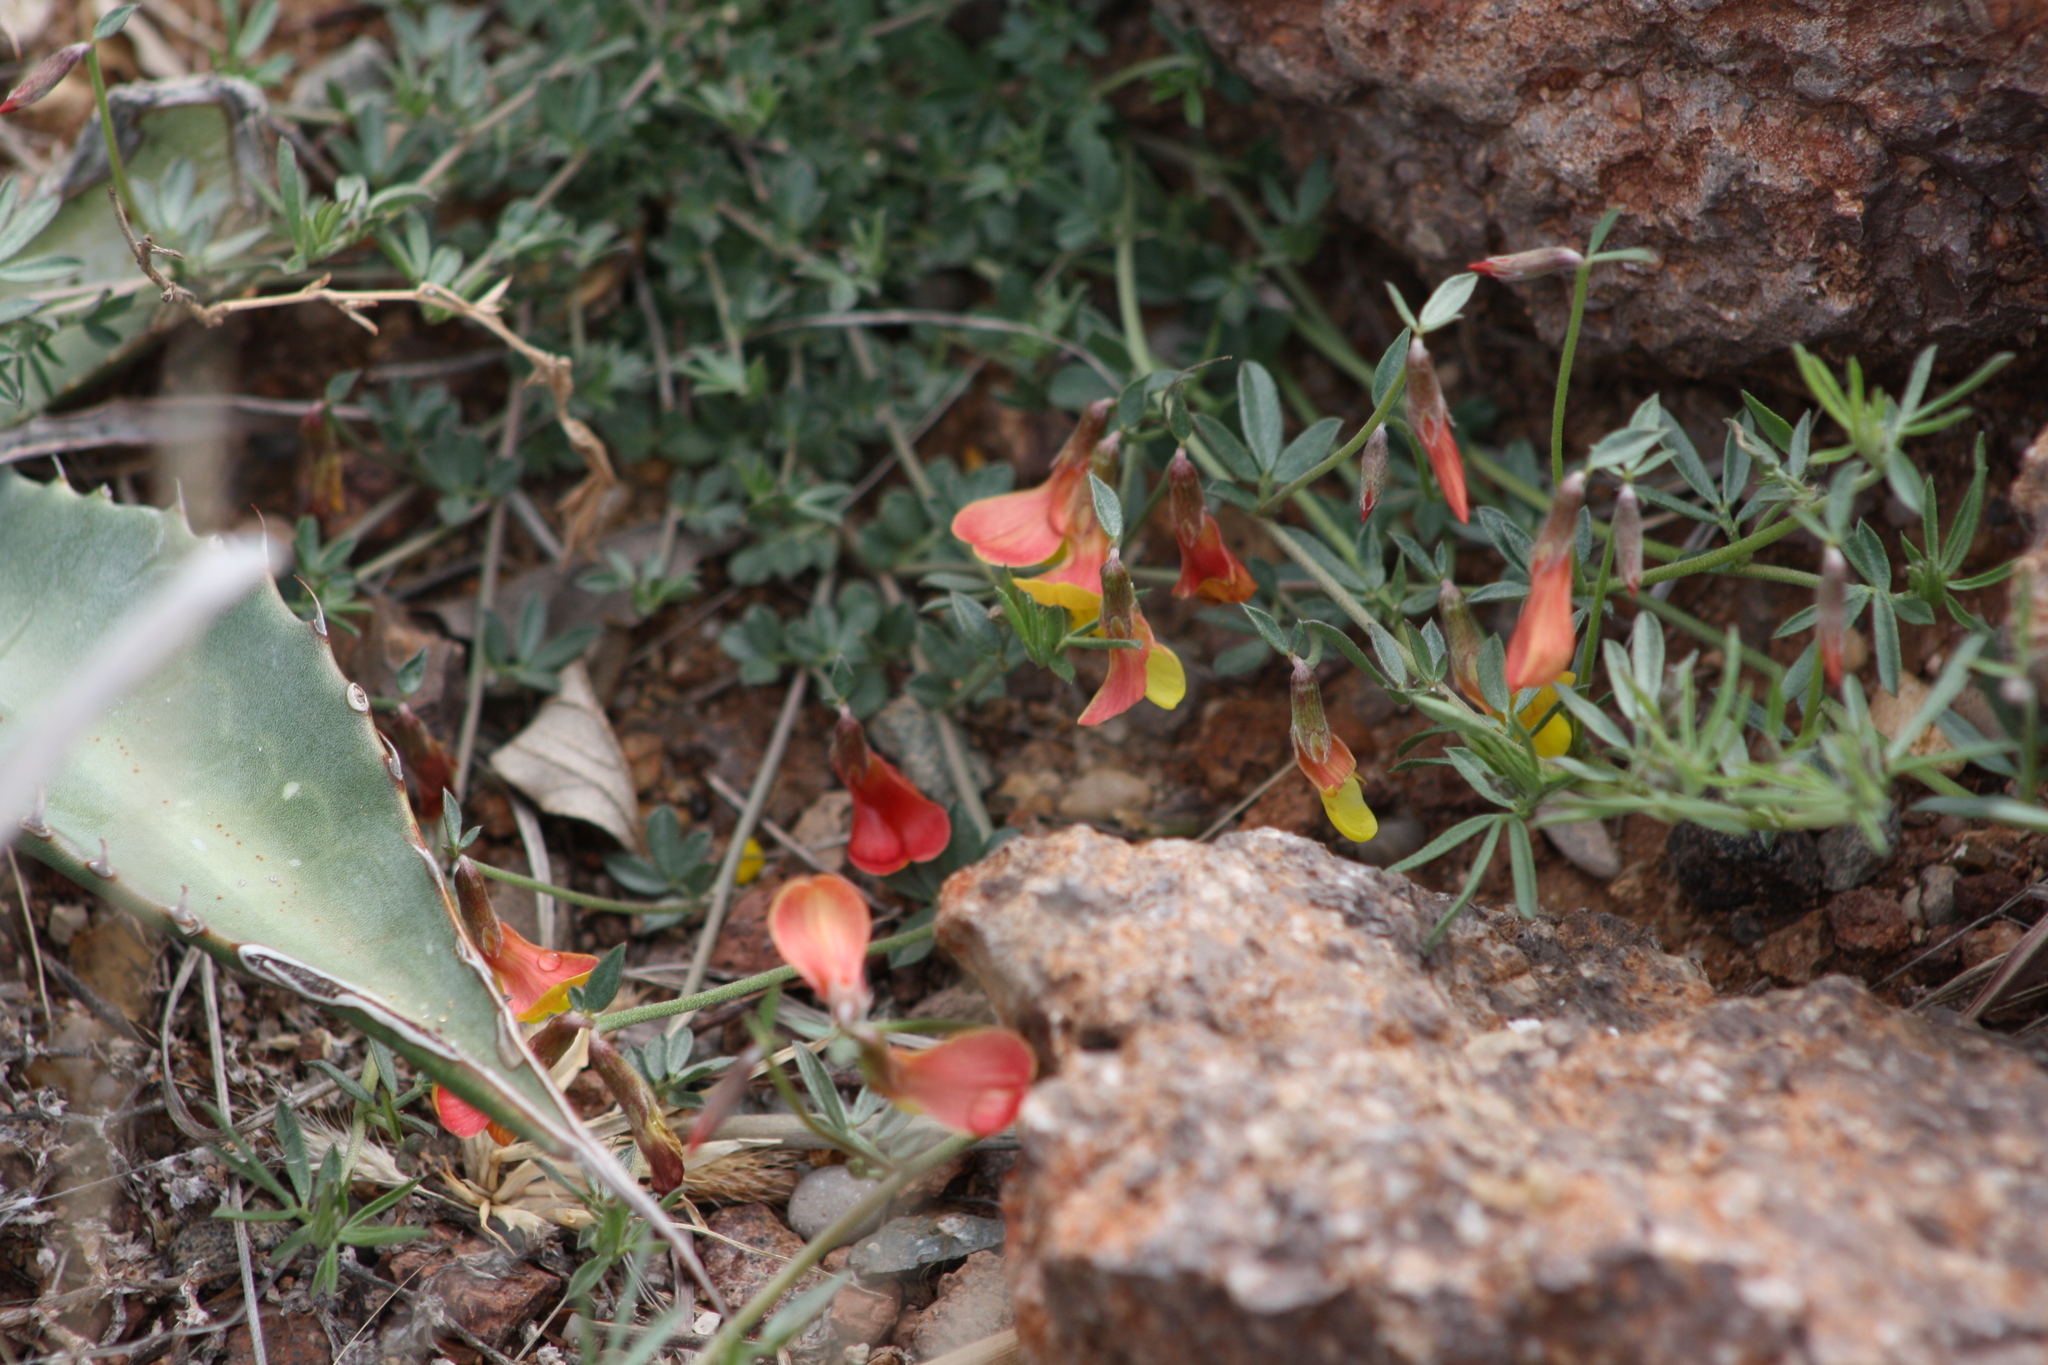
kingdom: Plantae
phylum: Tracheophyta
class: Magnoliopsida
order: Fabales
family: Fabaceae
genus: Acmispon
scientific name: Acmispon oroboides
